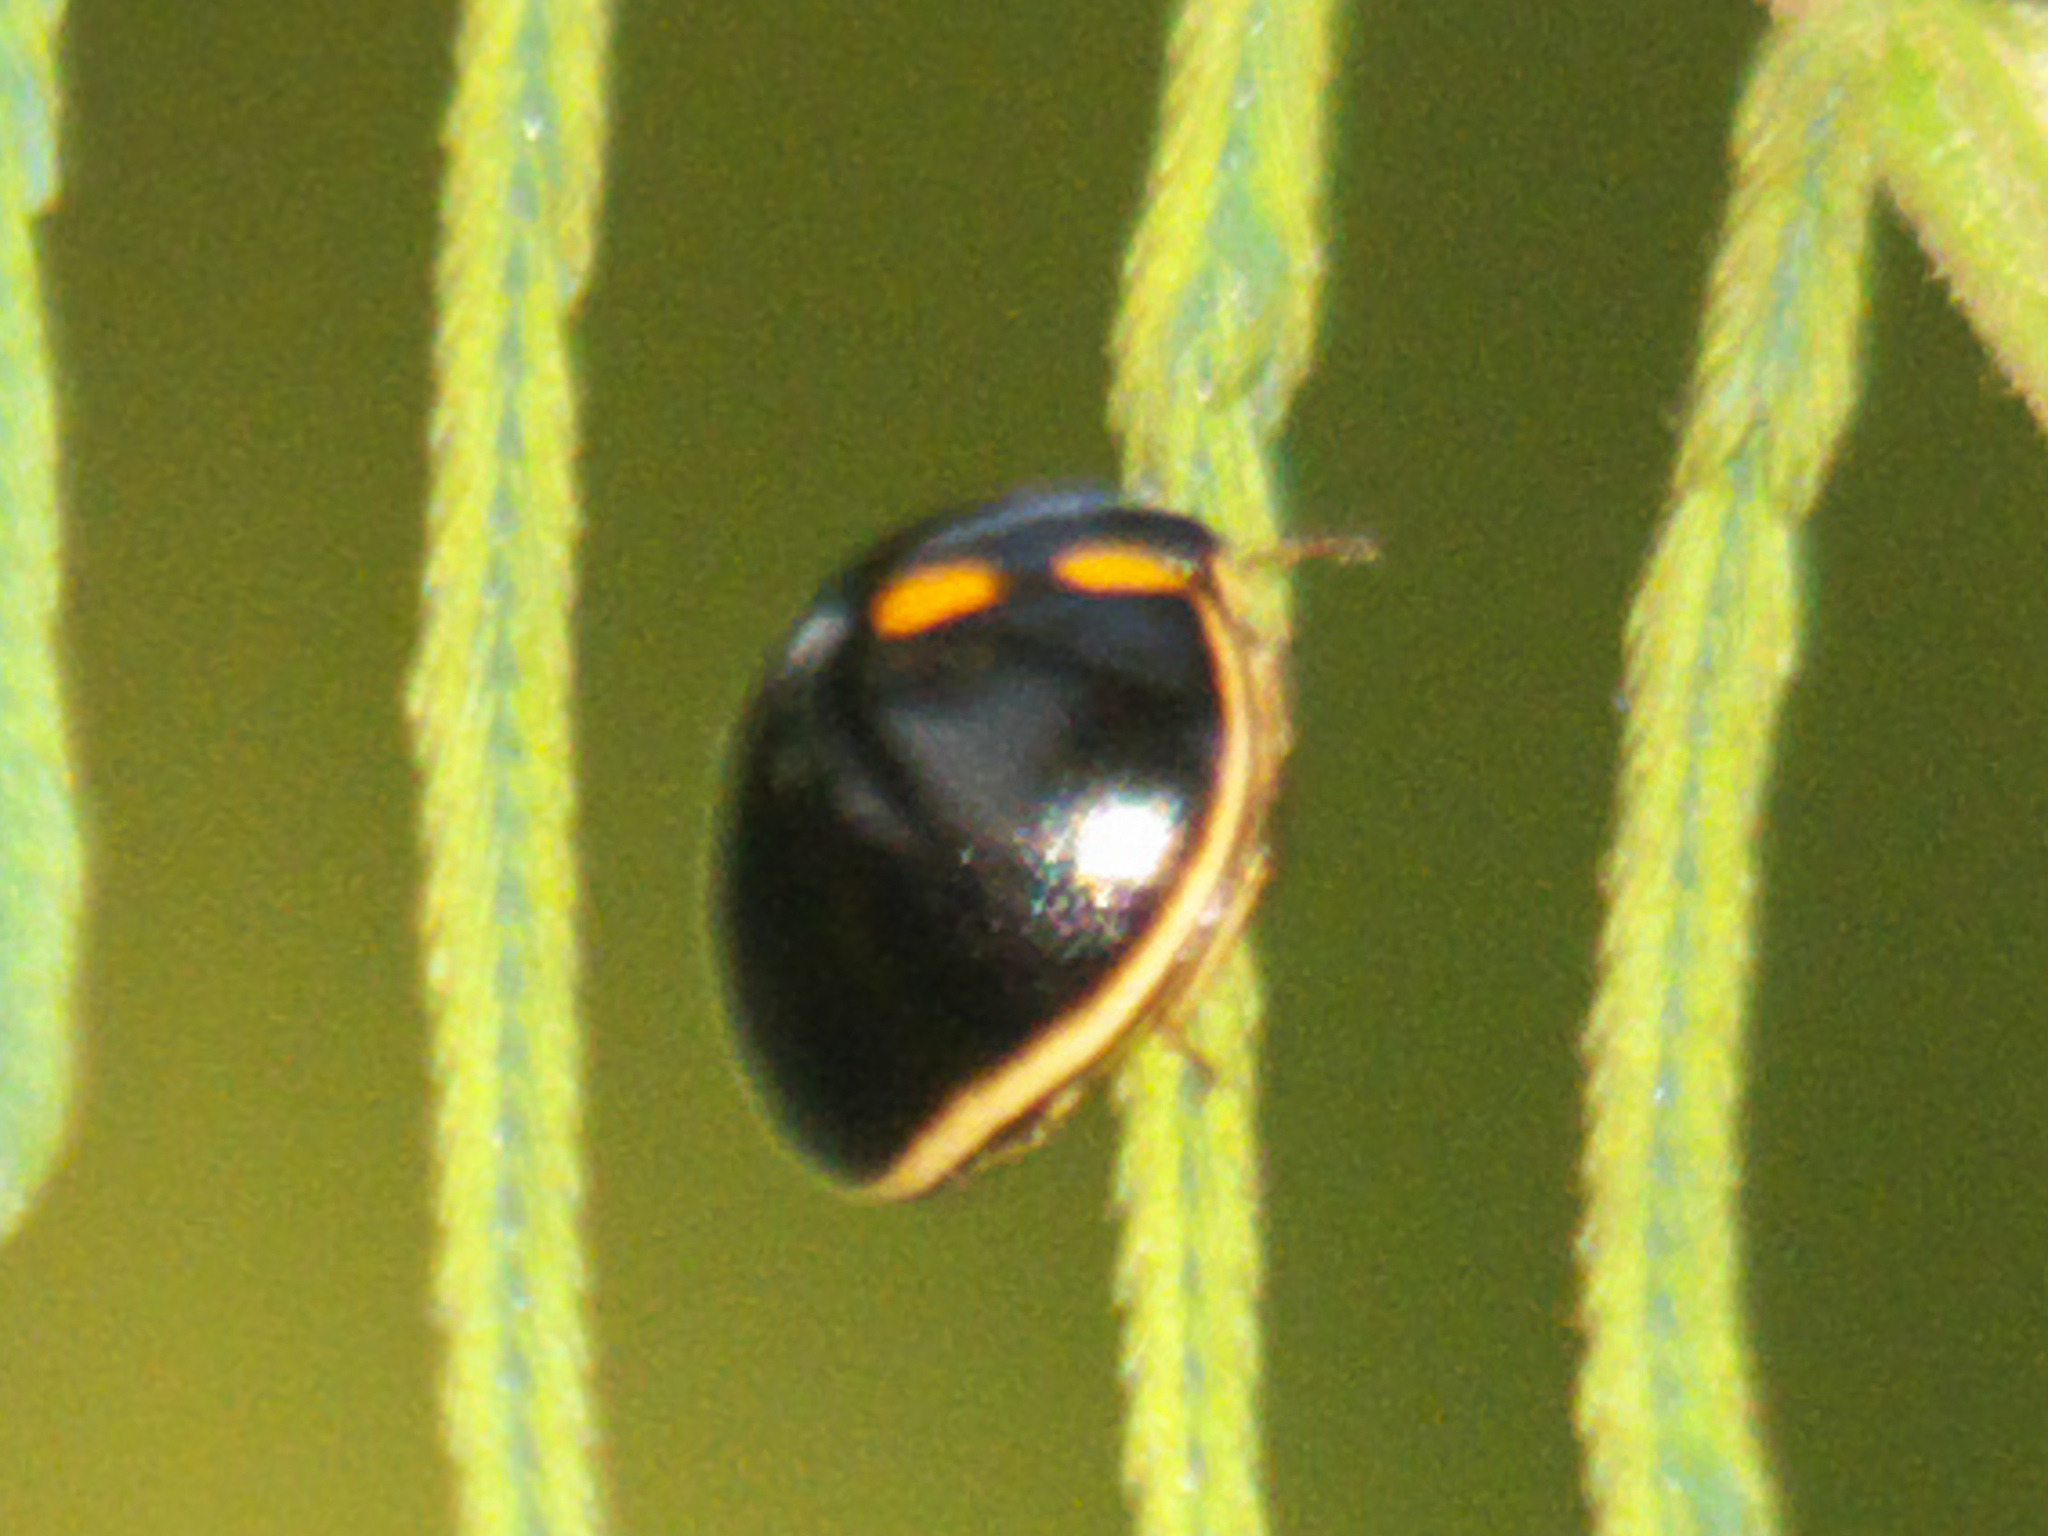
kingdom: Animalia
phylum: Arthropoda
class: Insecta
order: Hemiptera
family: Plataspidae
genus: Paracopta
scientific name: Paracopta duodecimpunctata
